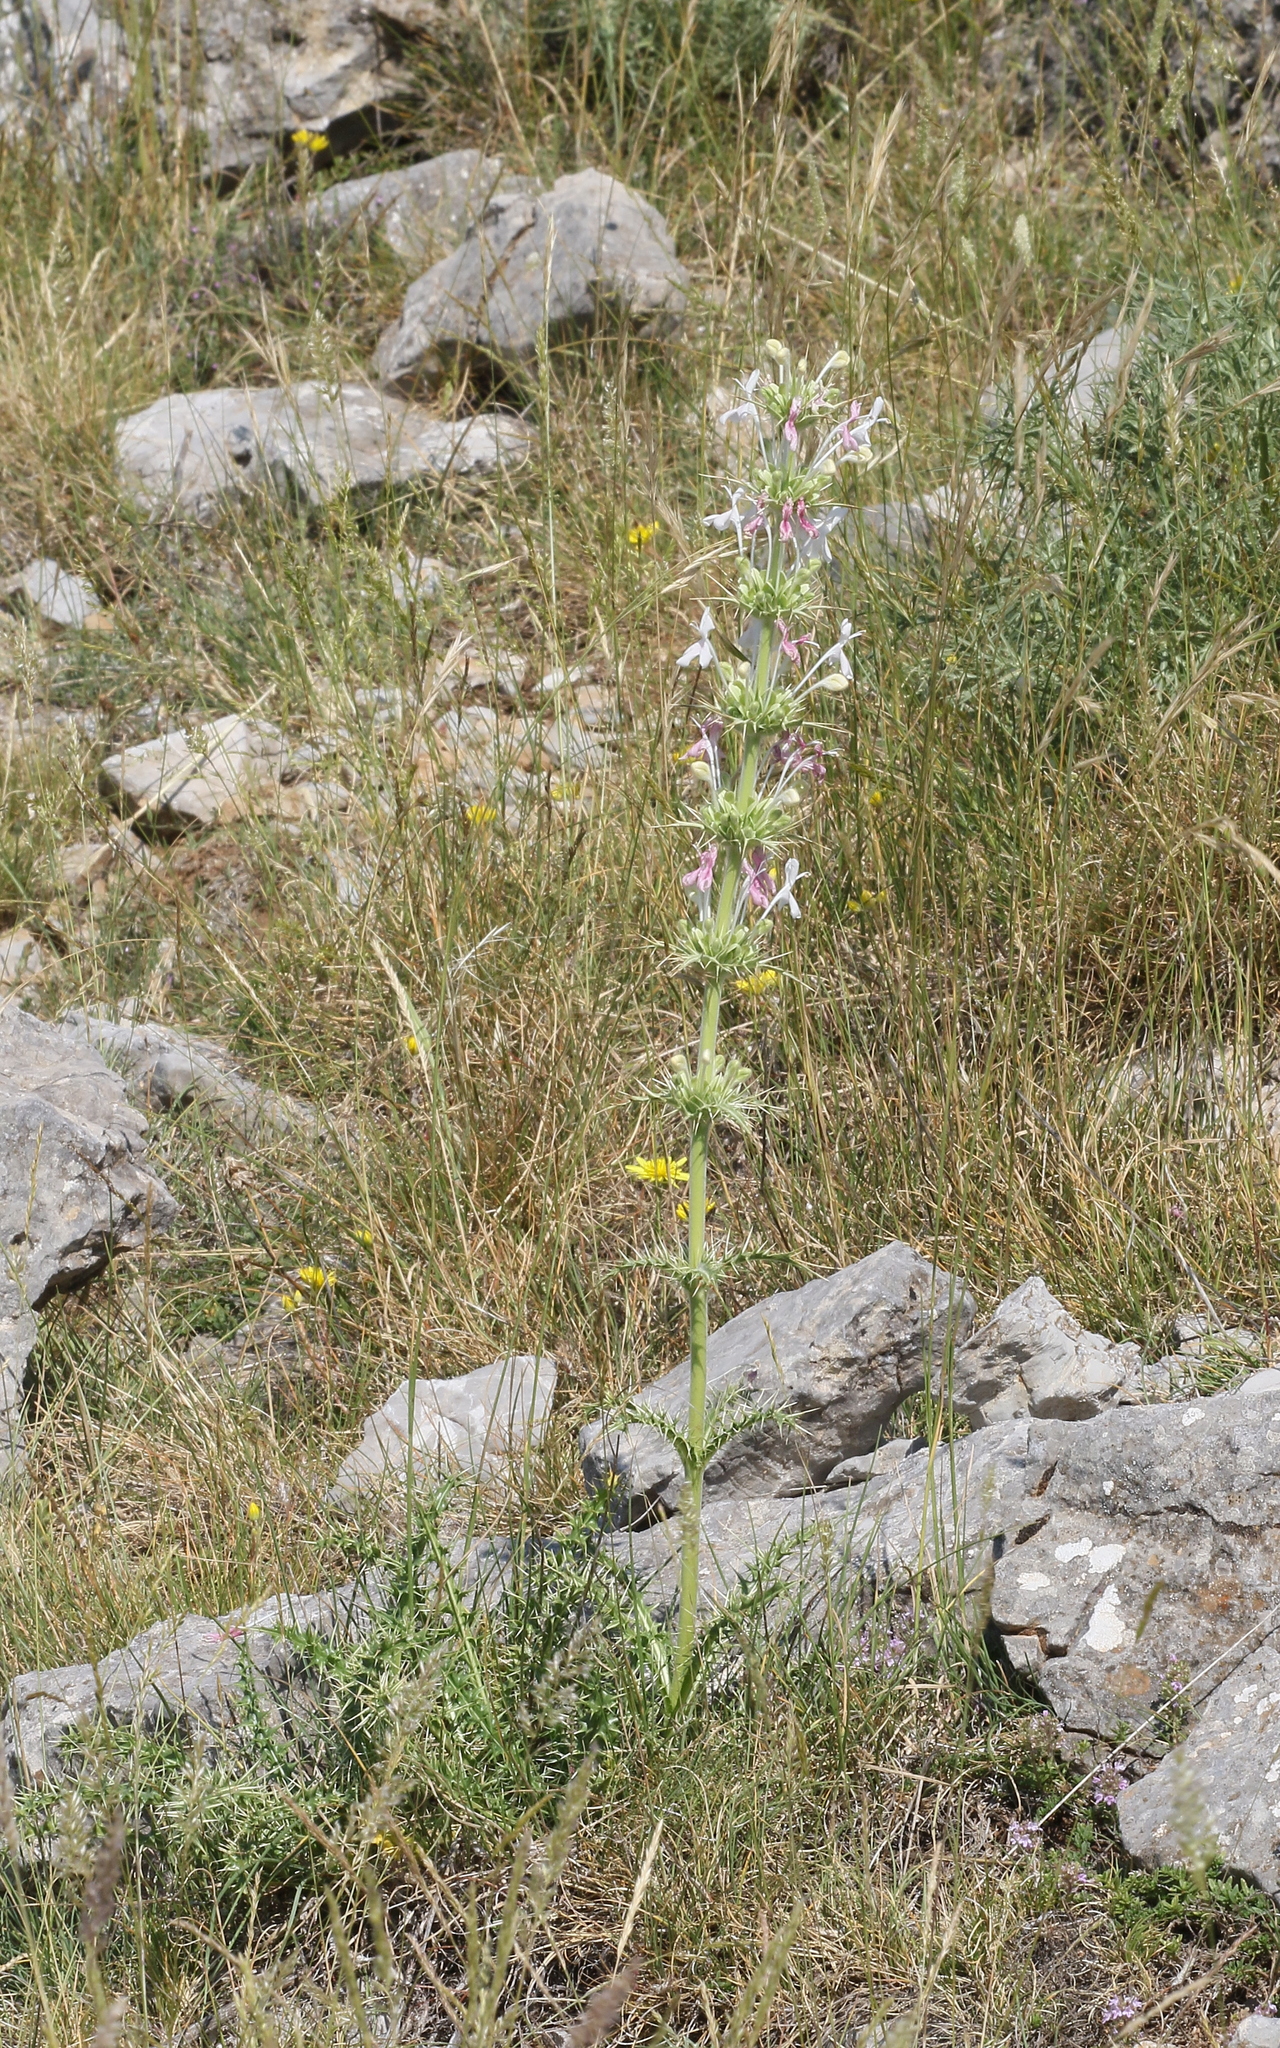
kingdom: Plantae
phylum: Tracheophyta
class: Magnoliopsida
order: Dipsacales
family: Caprifoliaceae
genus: Morina
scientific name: Morina persica
